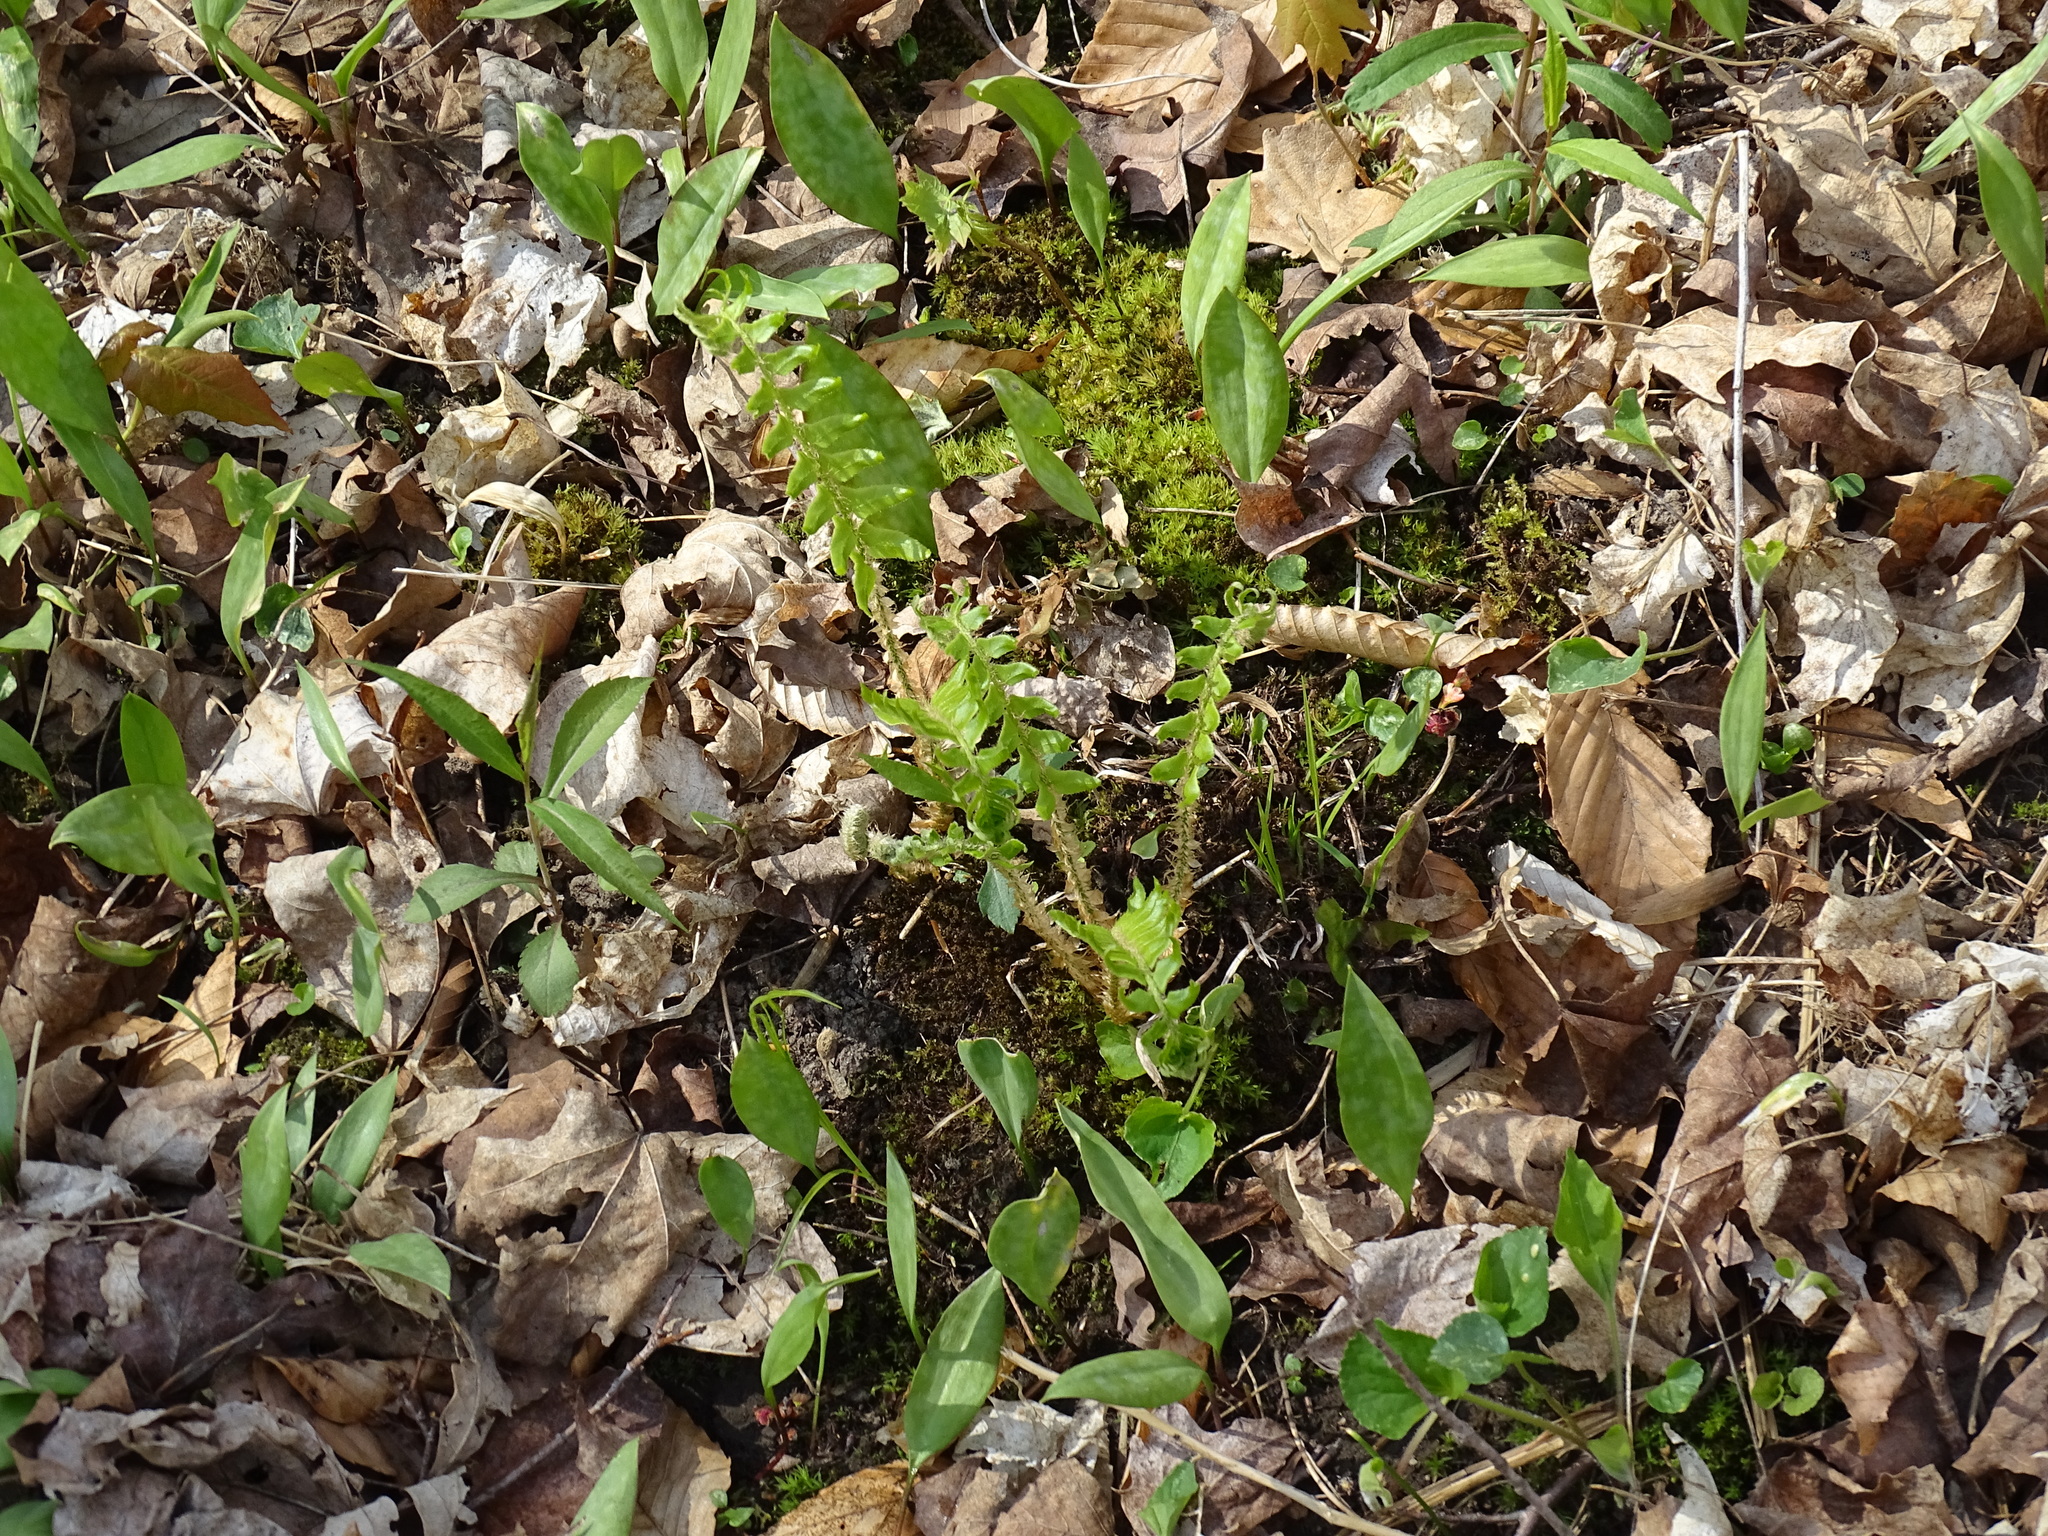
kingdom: Plantae
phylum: Tracheophyta
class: Polypodiopsida
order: Polypodiales
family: Dryopteridaceae
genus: Polystichum
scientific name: Polystichum acrostichoides
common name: Christmas fern
